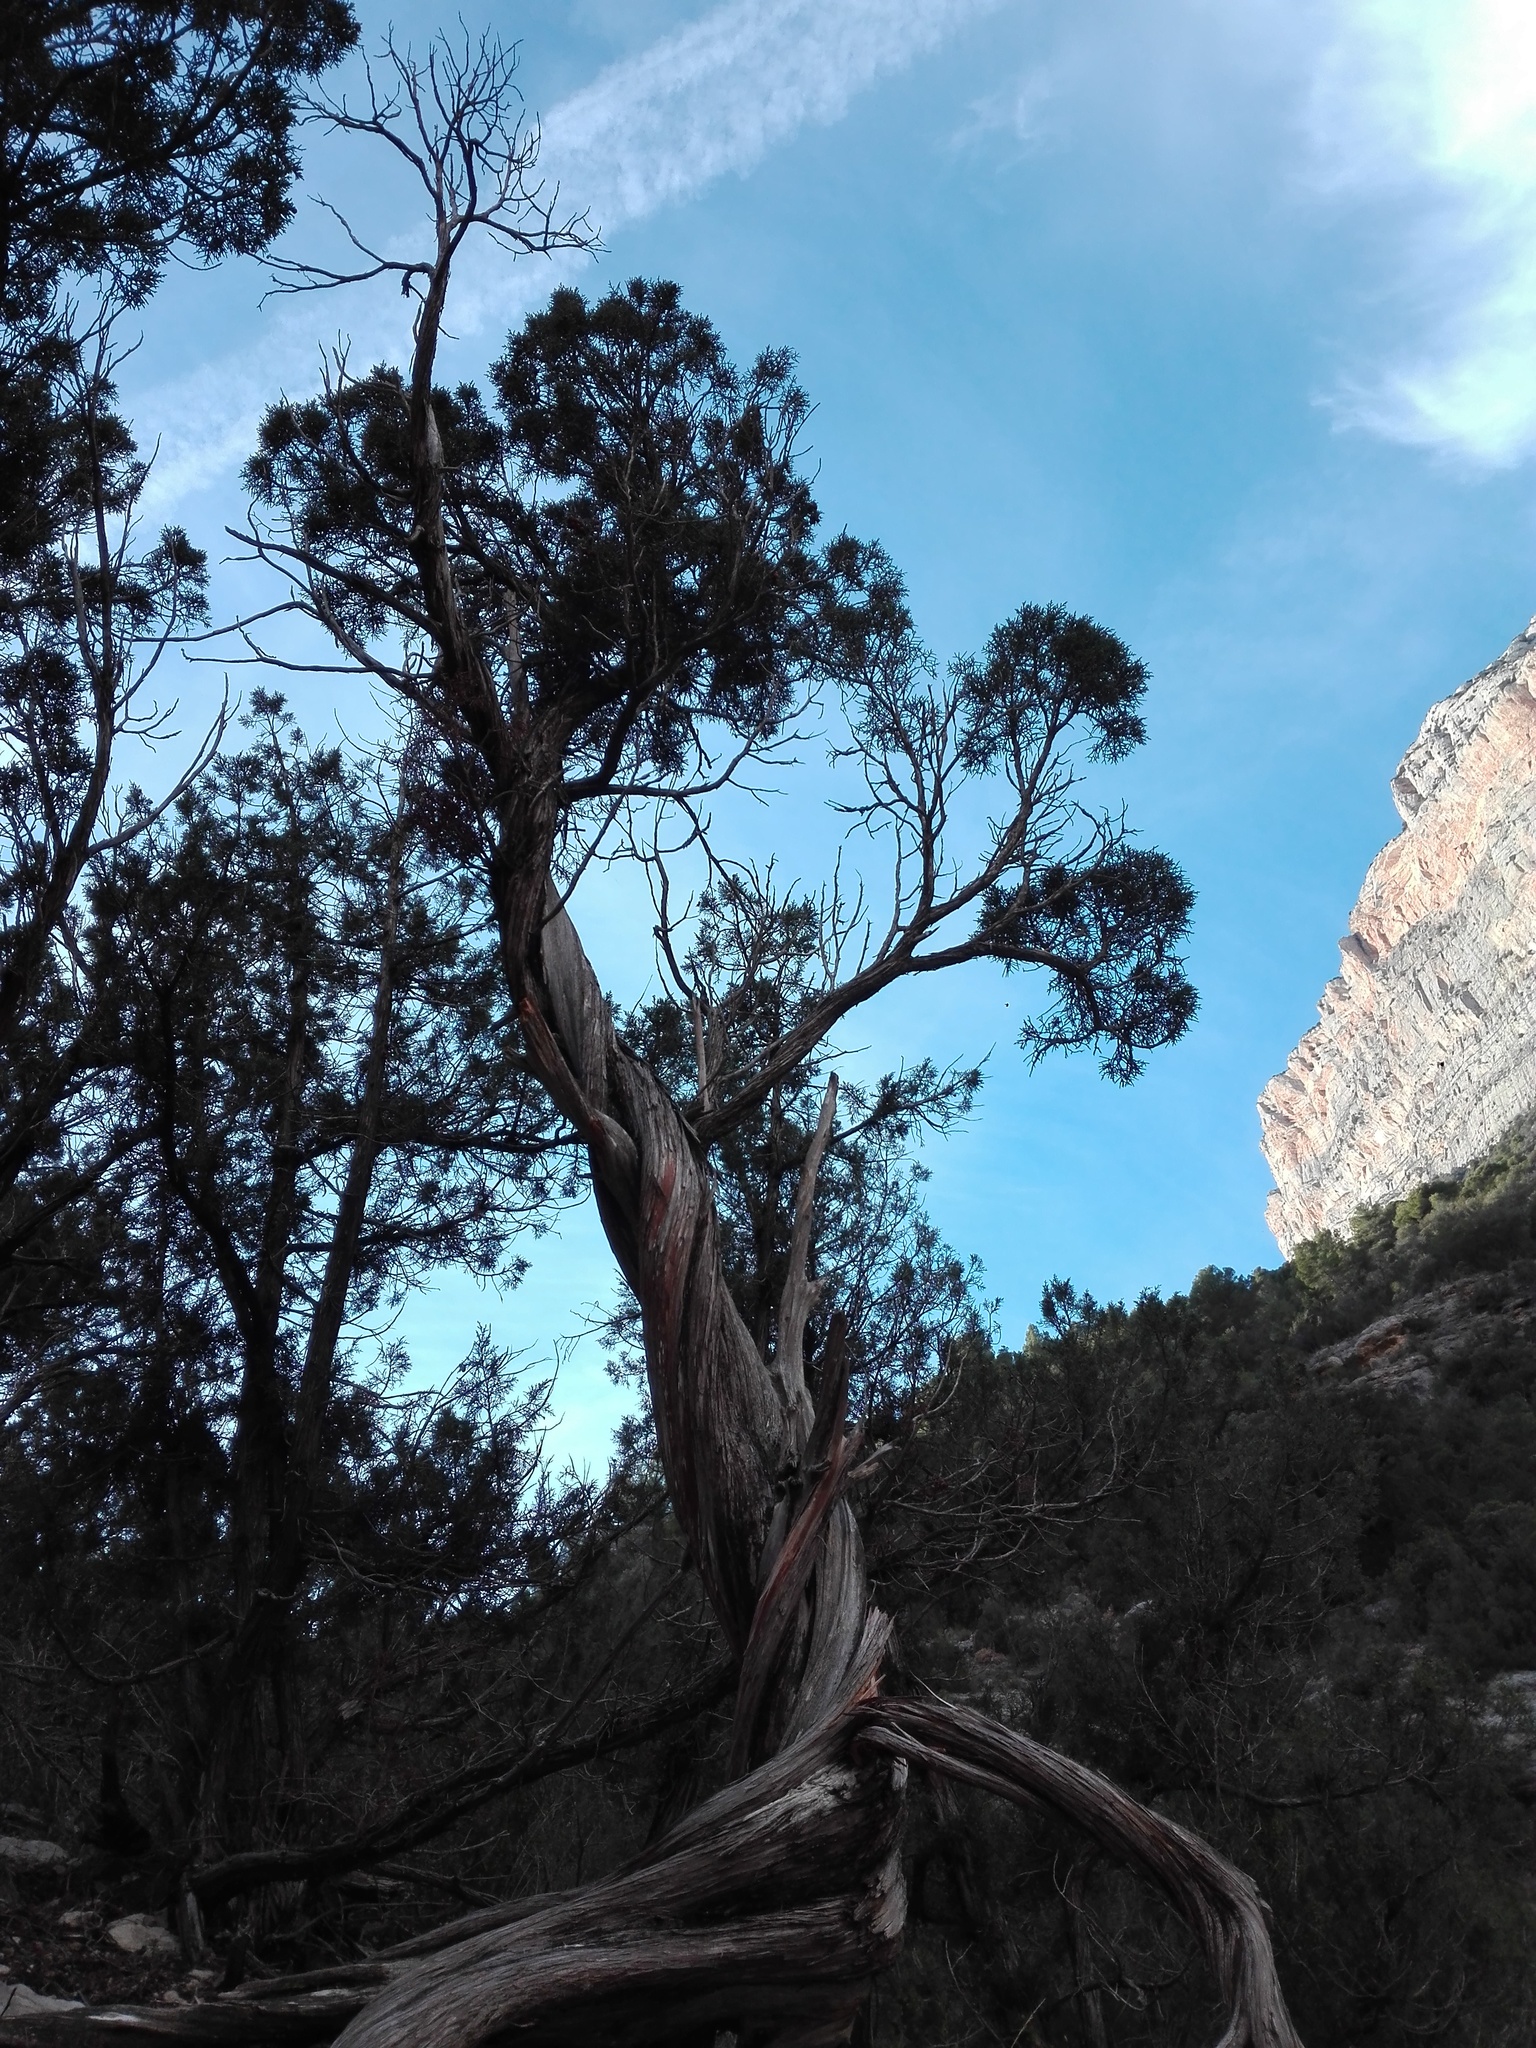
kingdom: Plantae
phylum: Tracheophyta
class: Pinopsida
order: Pinales
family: Cupressaceae
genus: Juniperus
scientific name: Juniperus phoenicea
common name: Phoenician juniper
